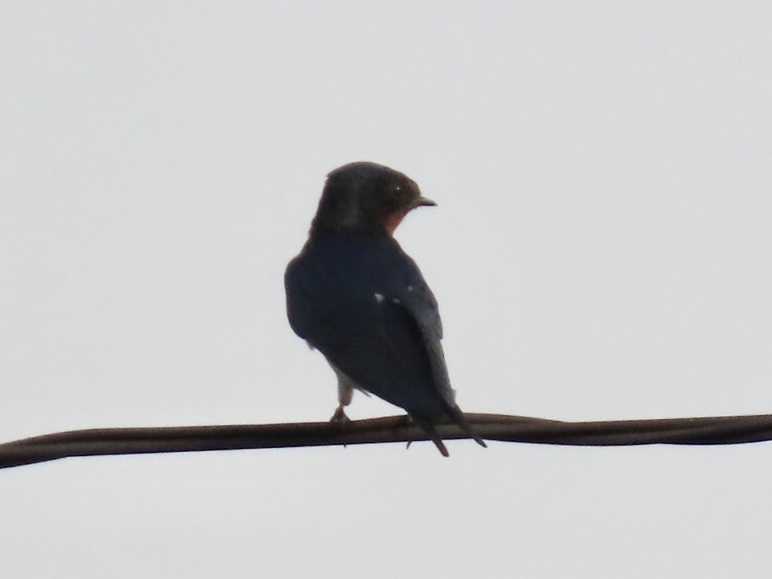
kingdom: Animalia
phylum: Chordata
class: Aves
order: Passeriformes
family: Hirundinidae
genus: Hirundo
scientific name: Hirundo rustica
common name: Barn swallow
